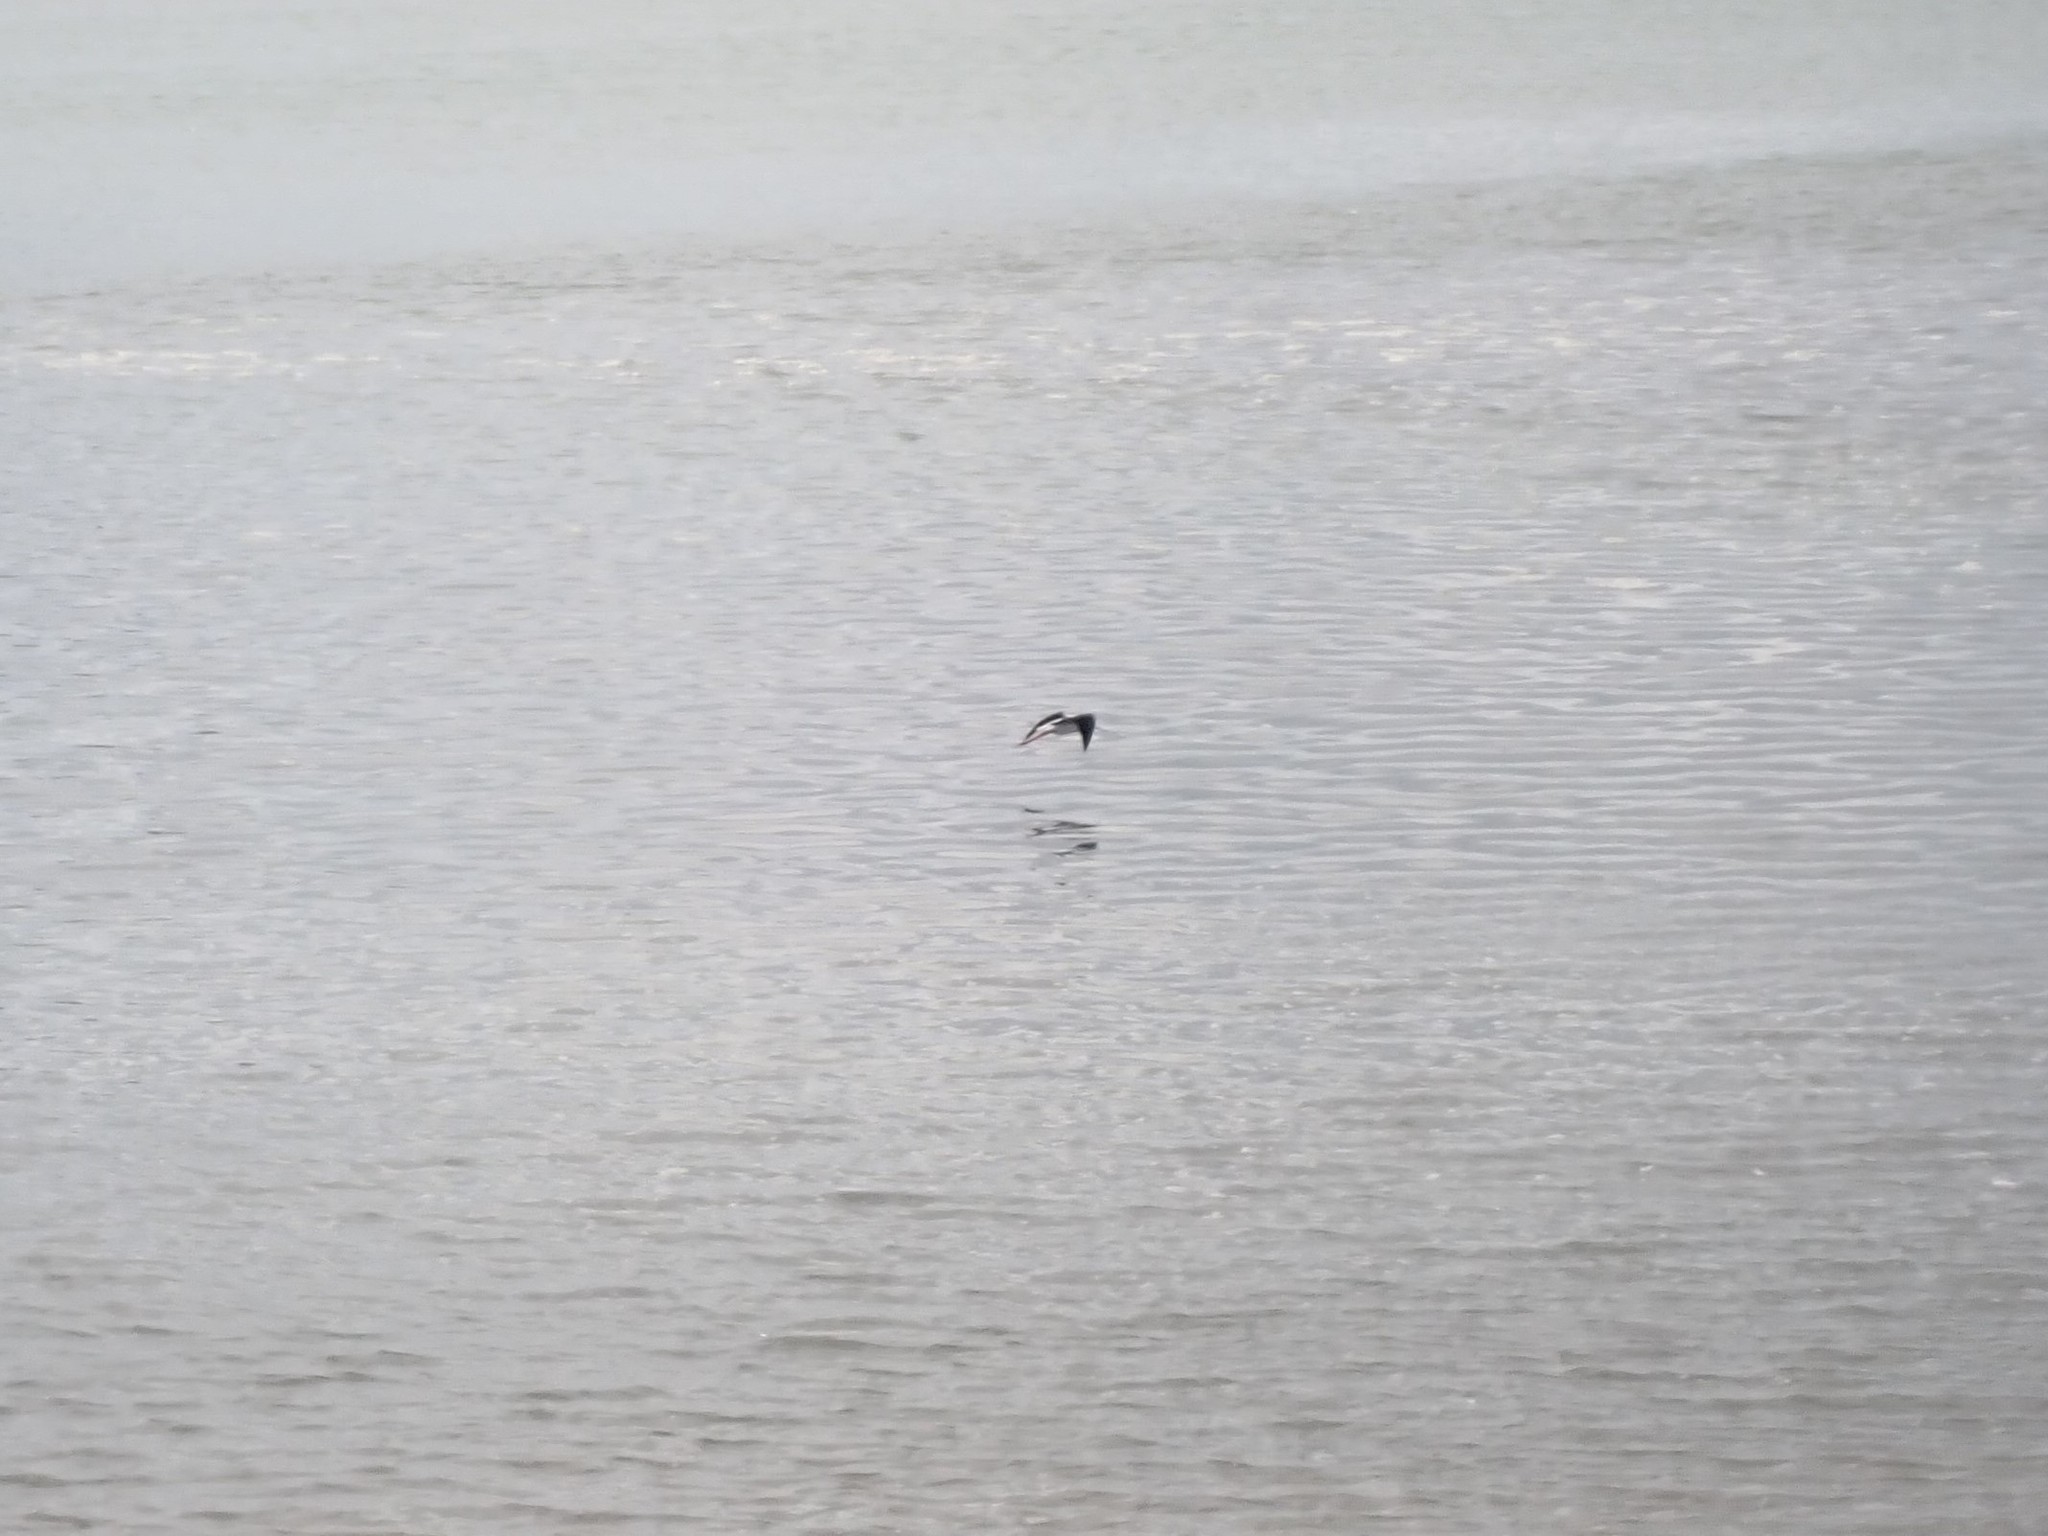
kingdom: Animalia
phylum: Chordata
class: Aves
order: Charadriiformes
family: Recurvirostridae
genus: Himantopus
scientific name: Himantopus leucocephalus
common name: White-headed stilt
